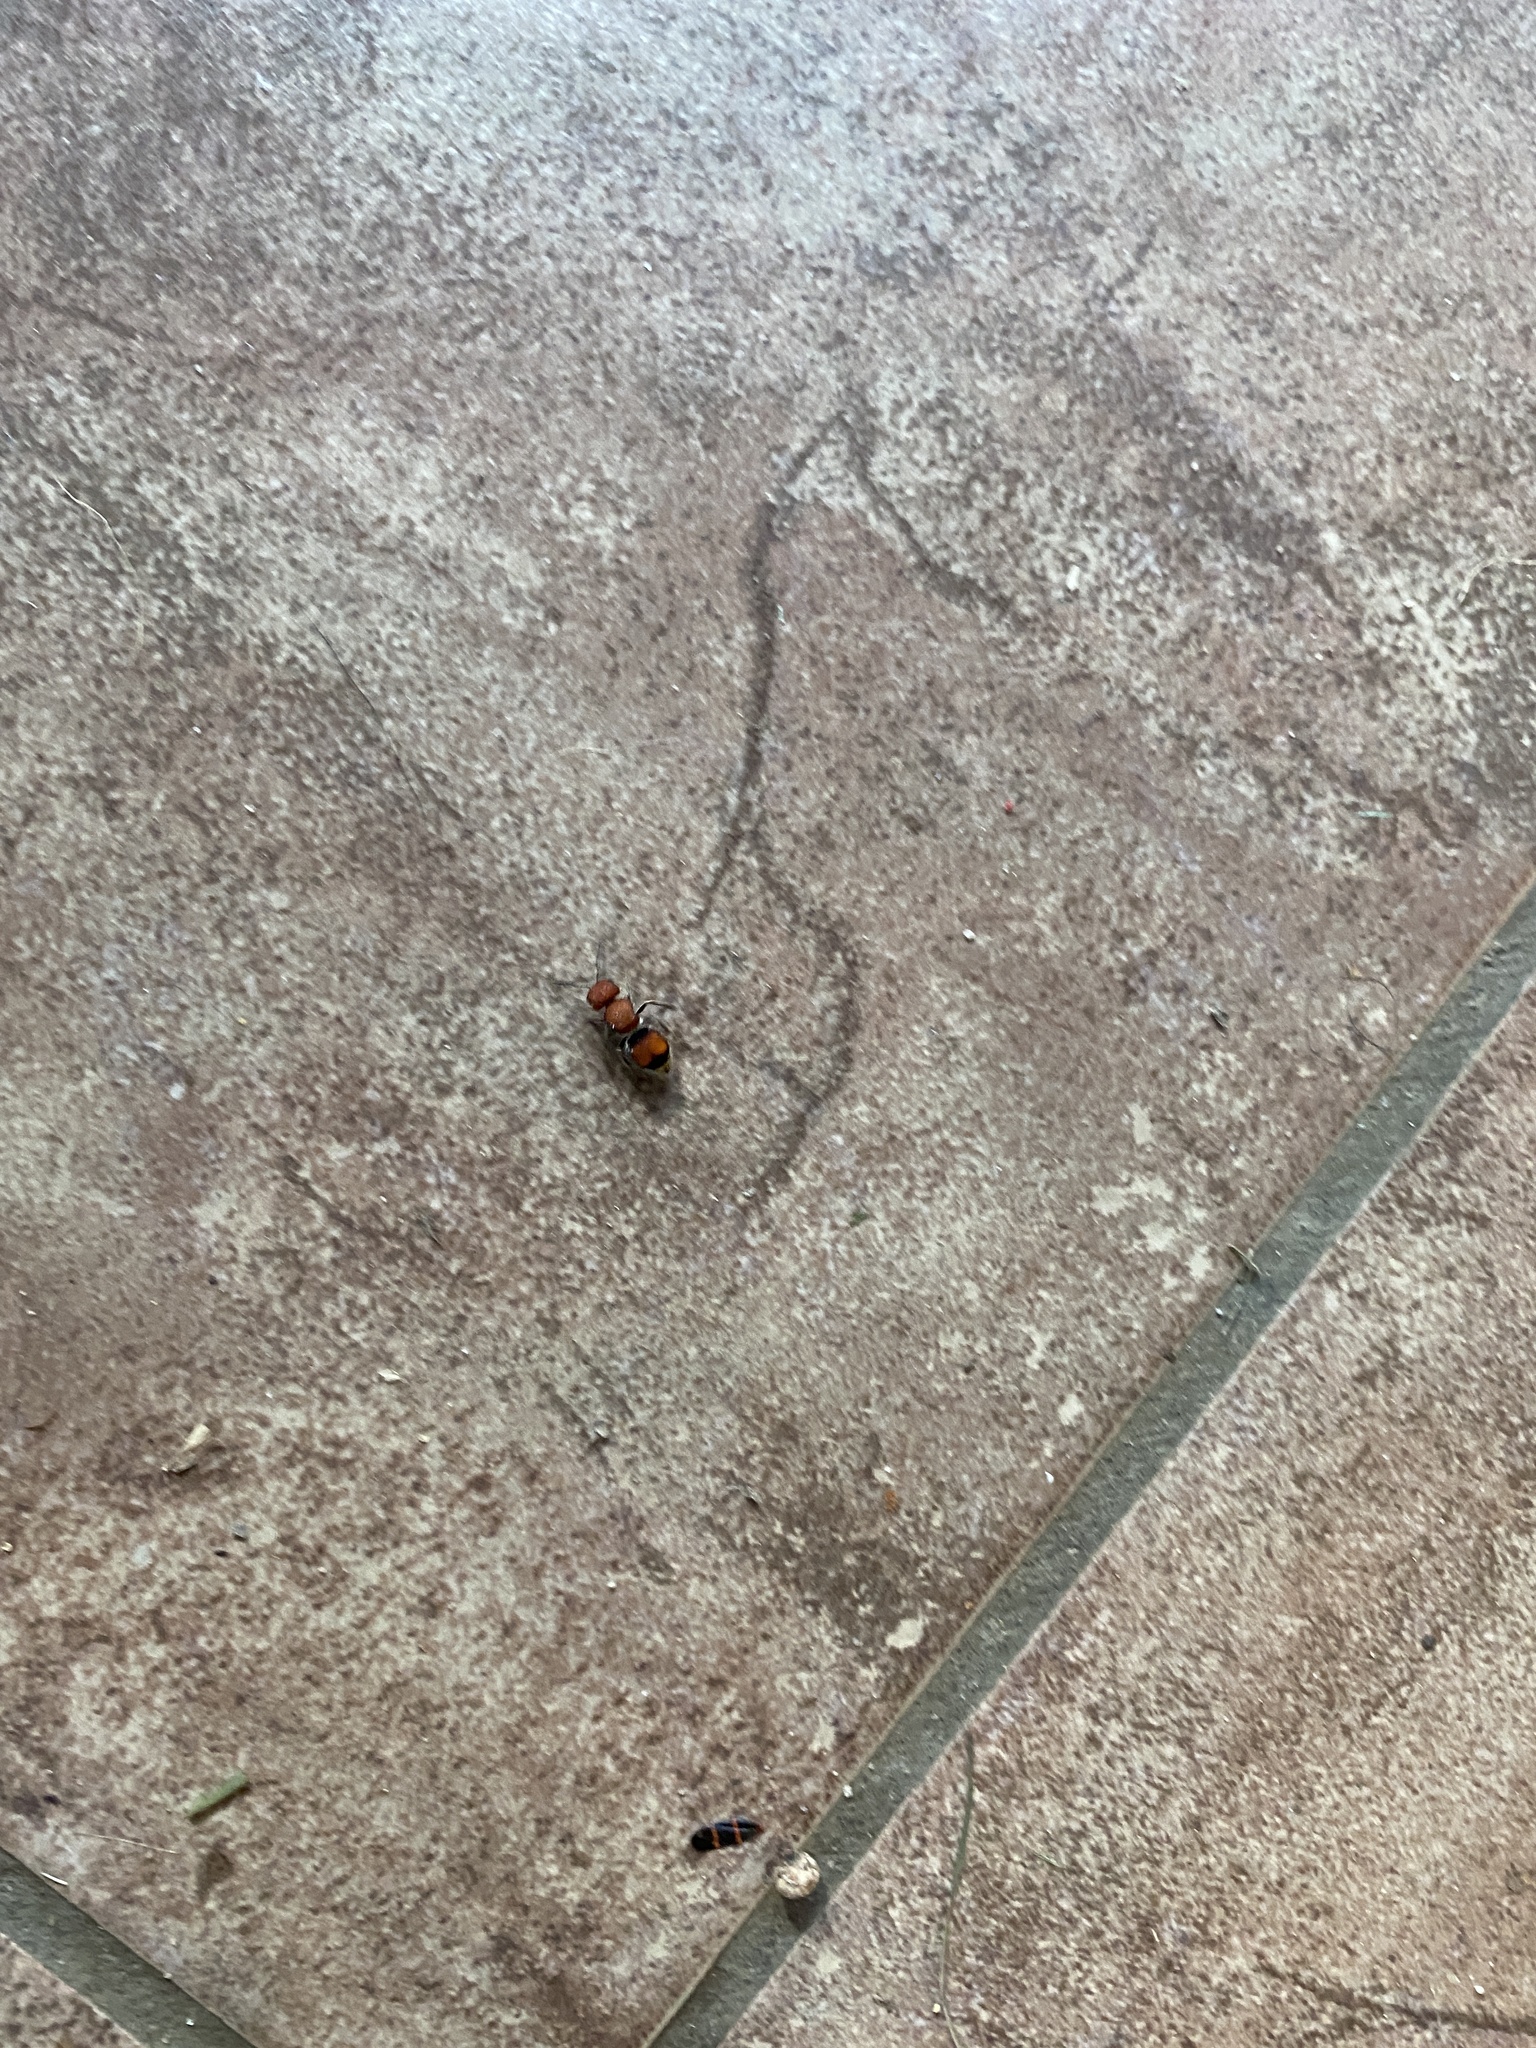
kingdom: Animalia
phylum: Arthropoda
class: Insecta
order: Hymenoptera
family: Mutillidae
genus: Pseudomethoca
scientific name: Pseudomethoca
